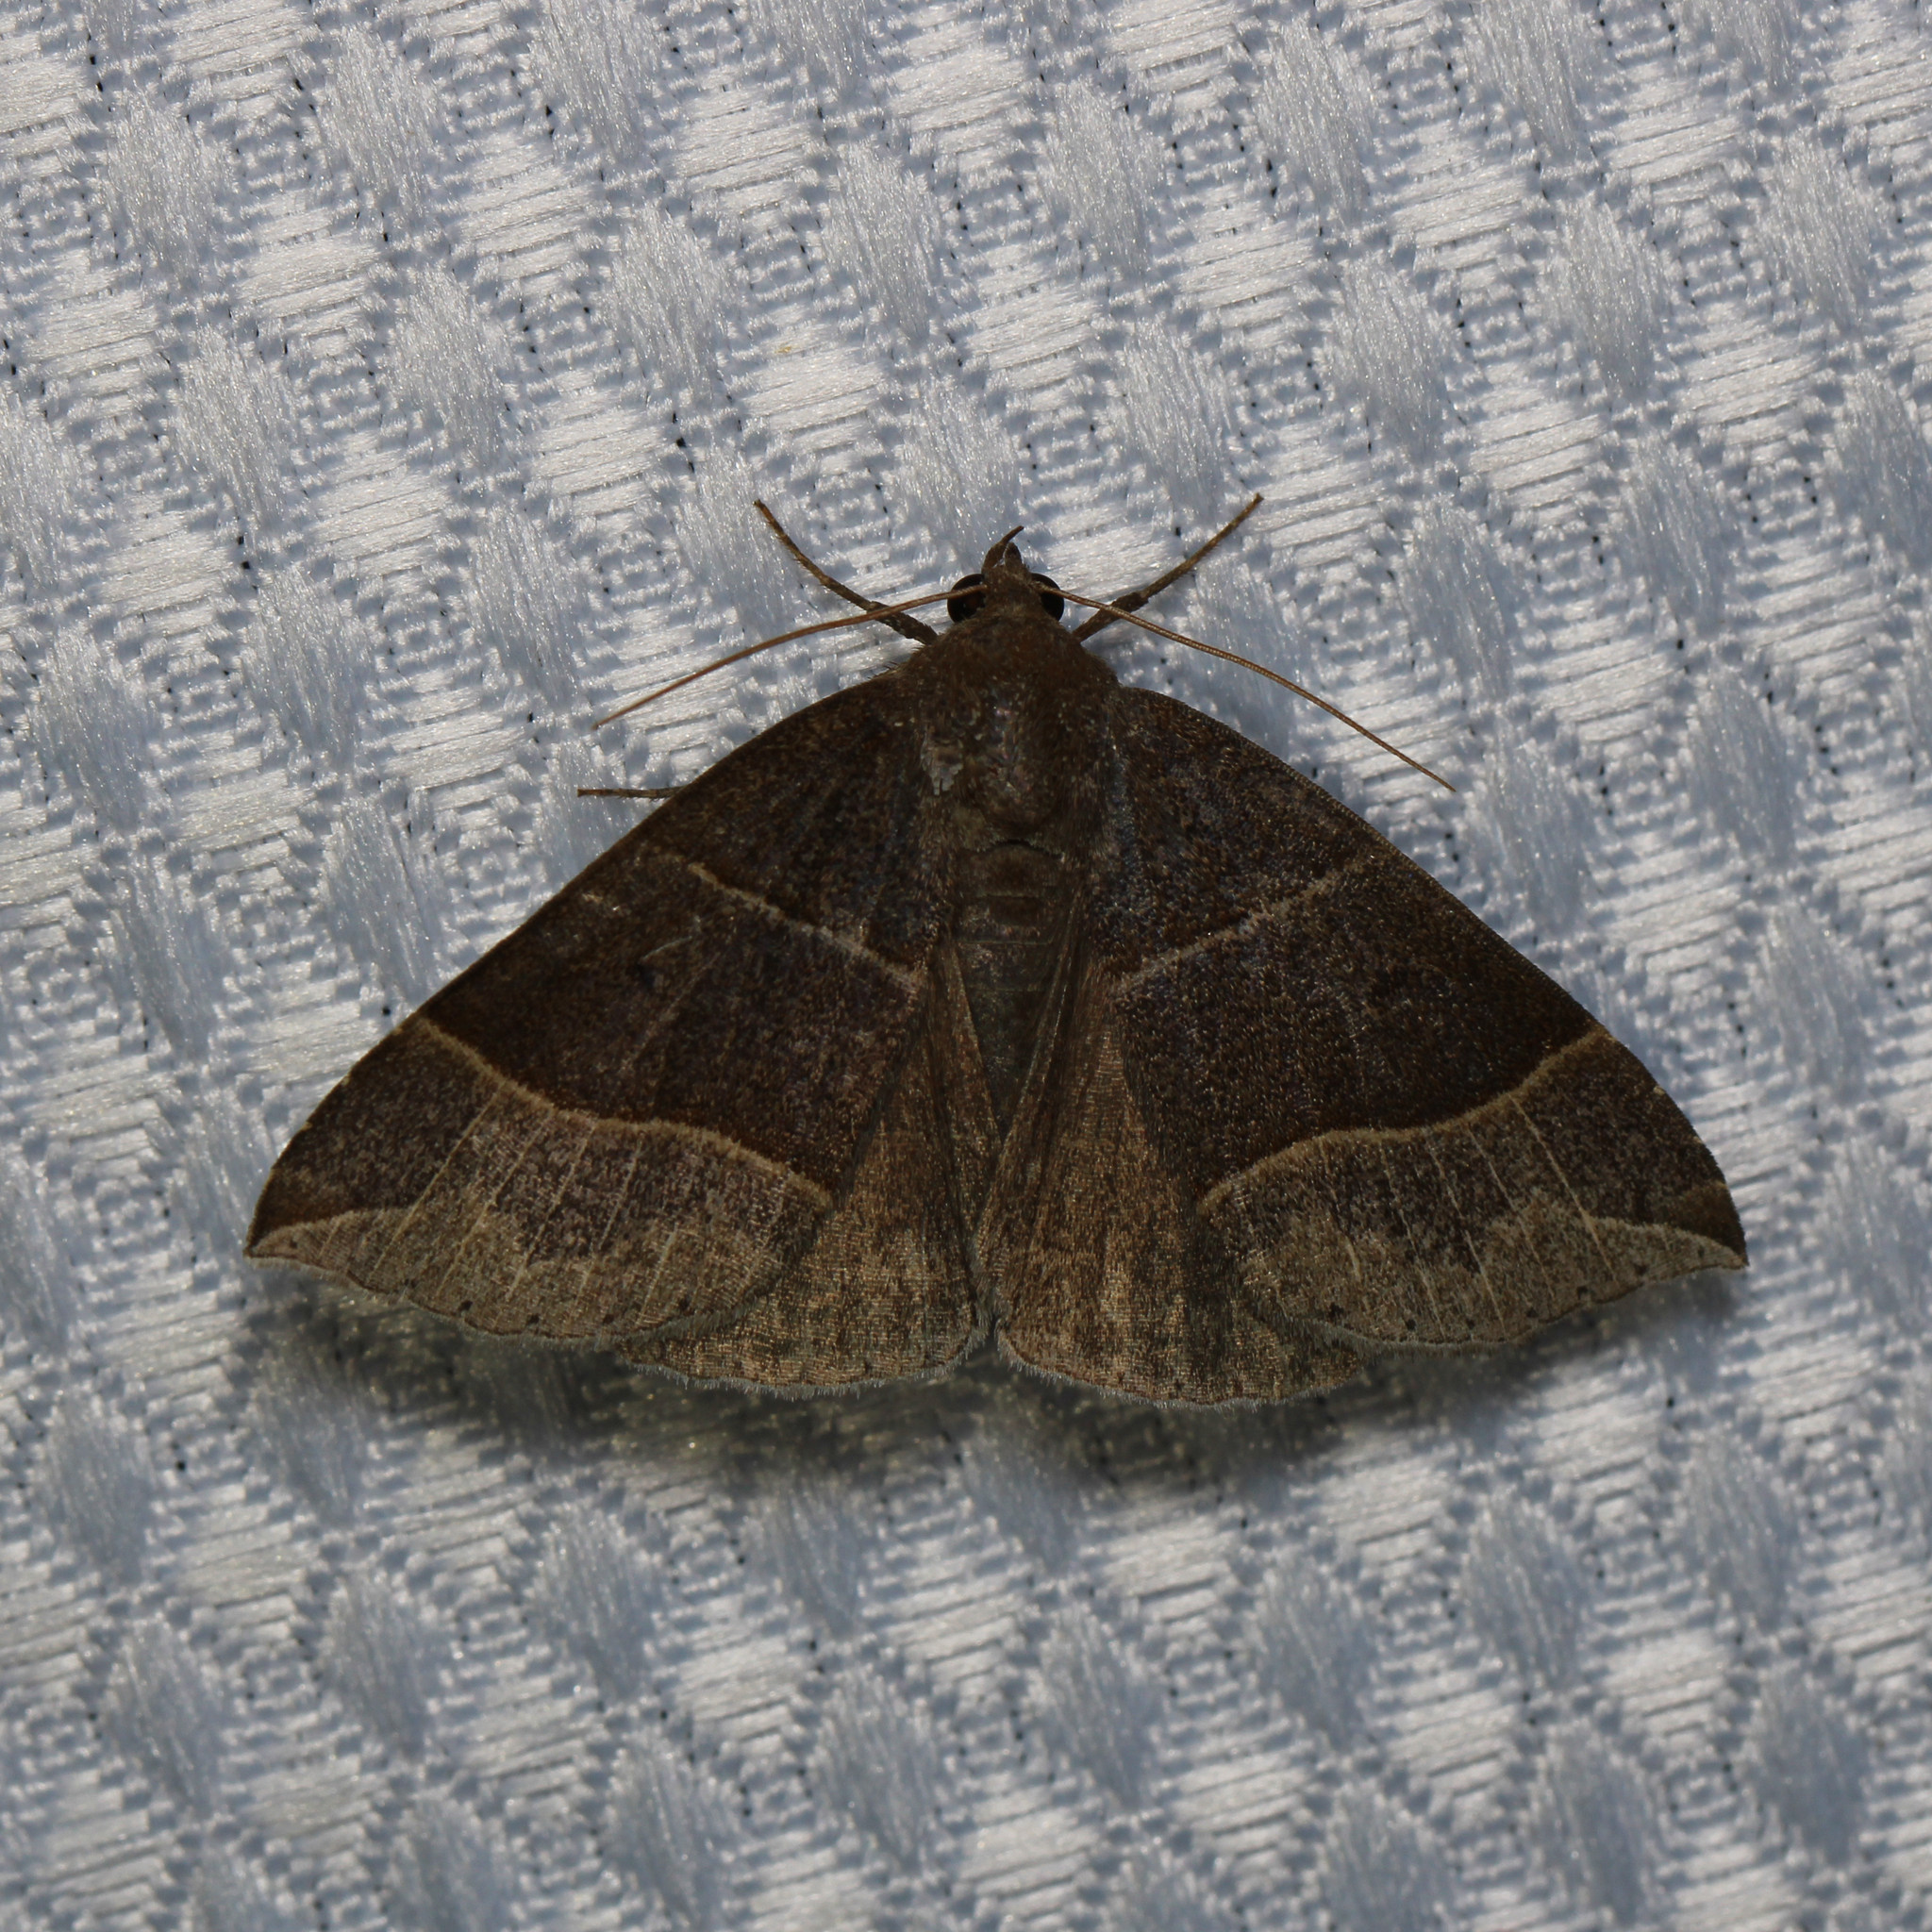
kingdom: Animalia
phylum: Arthropoda
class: Insecta
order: Lepidoptera
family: Erebidae
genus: Parallelia
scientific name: Parallelia bistriaris
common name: Maple looper moth
